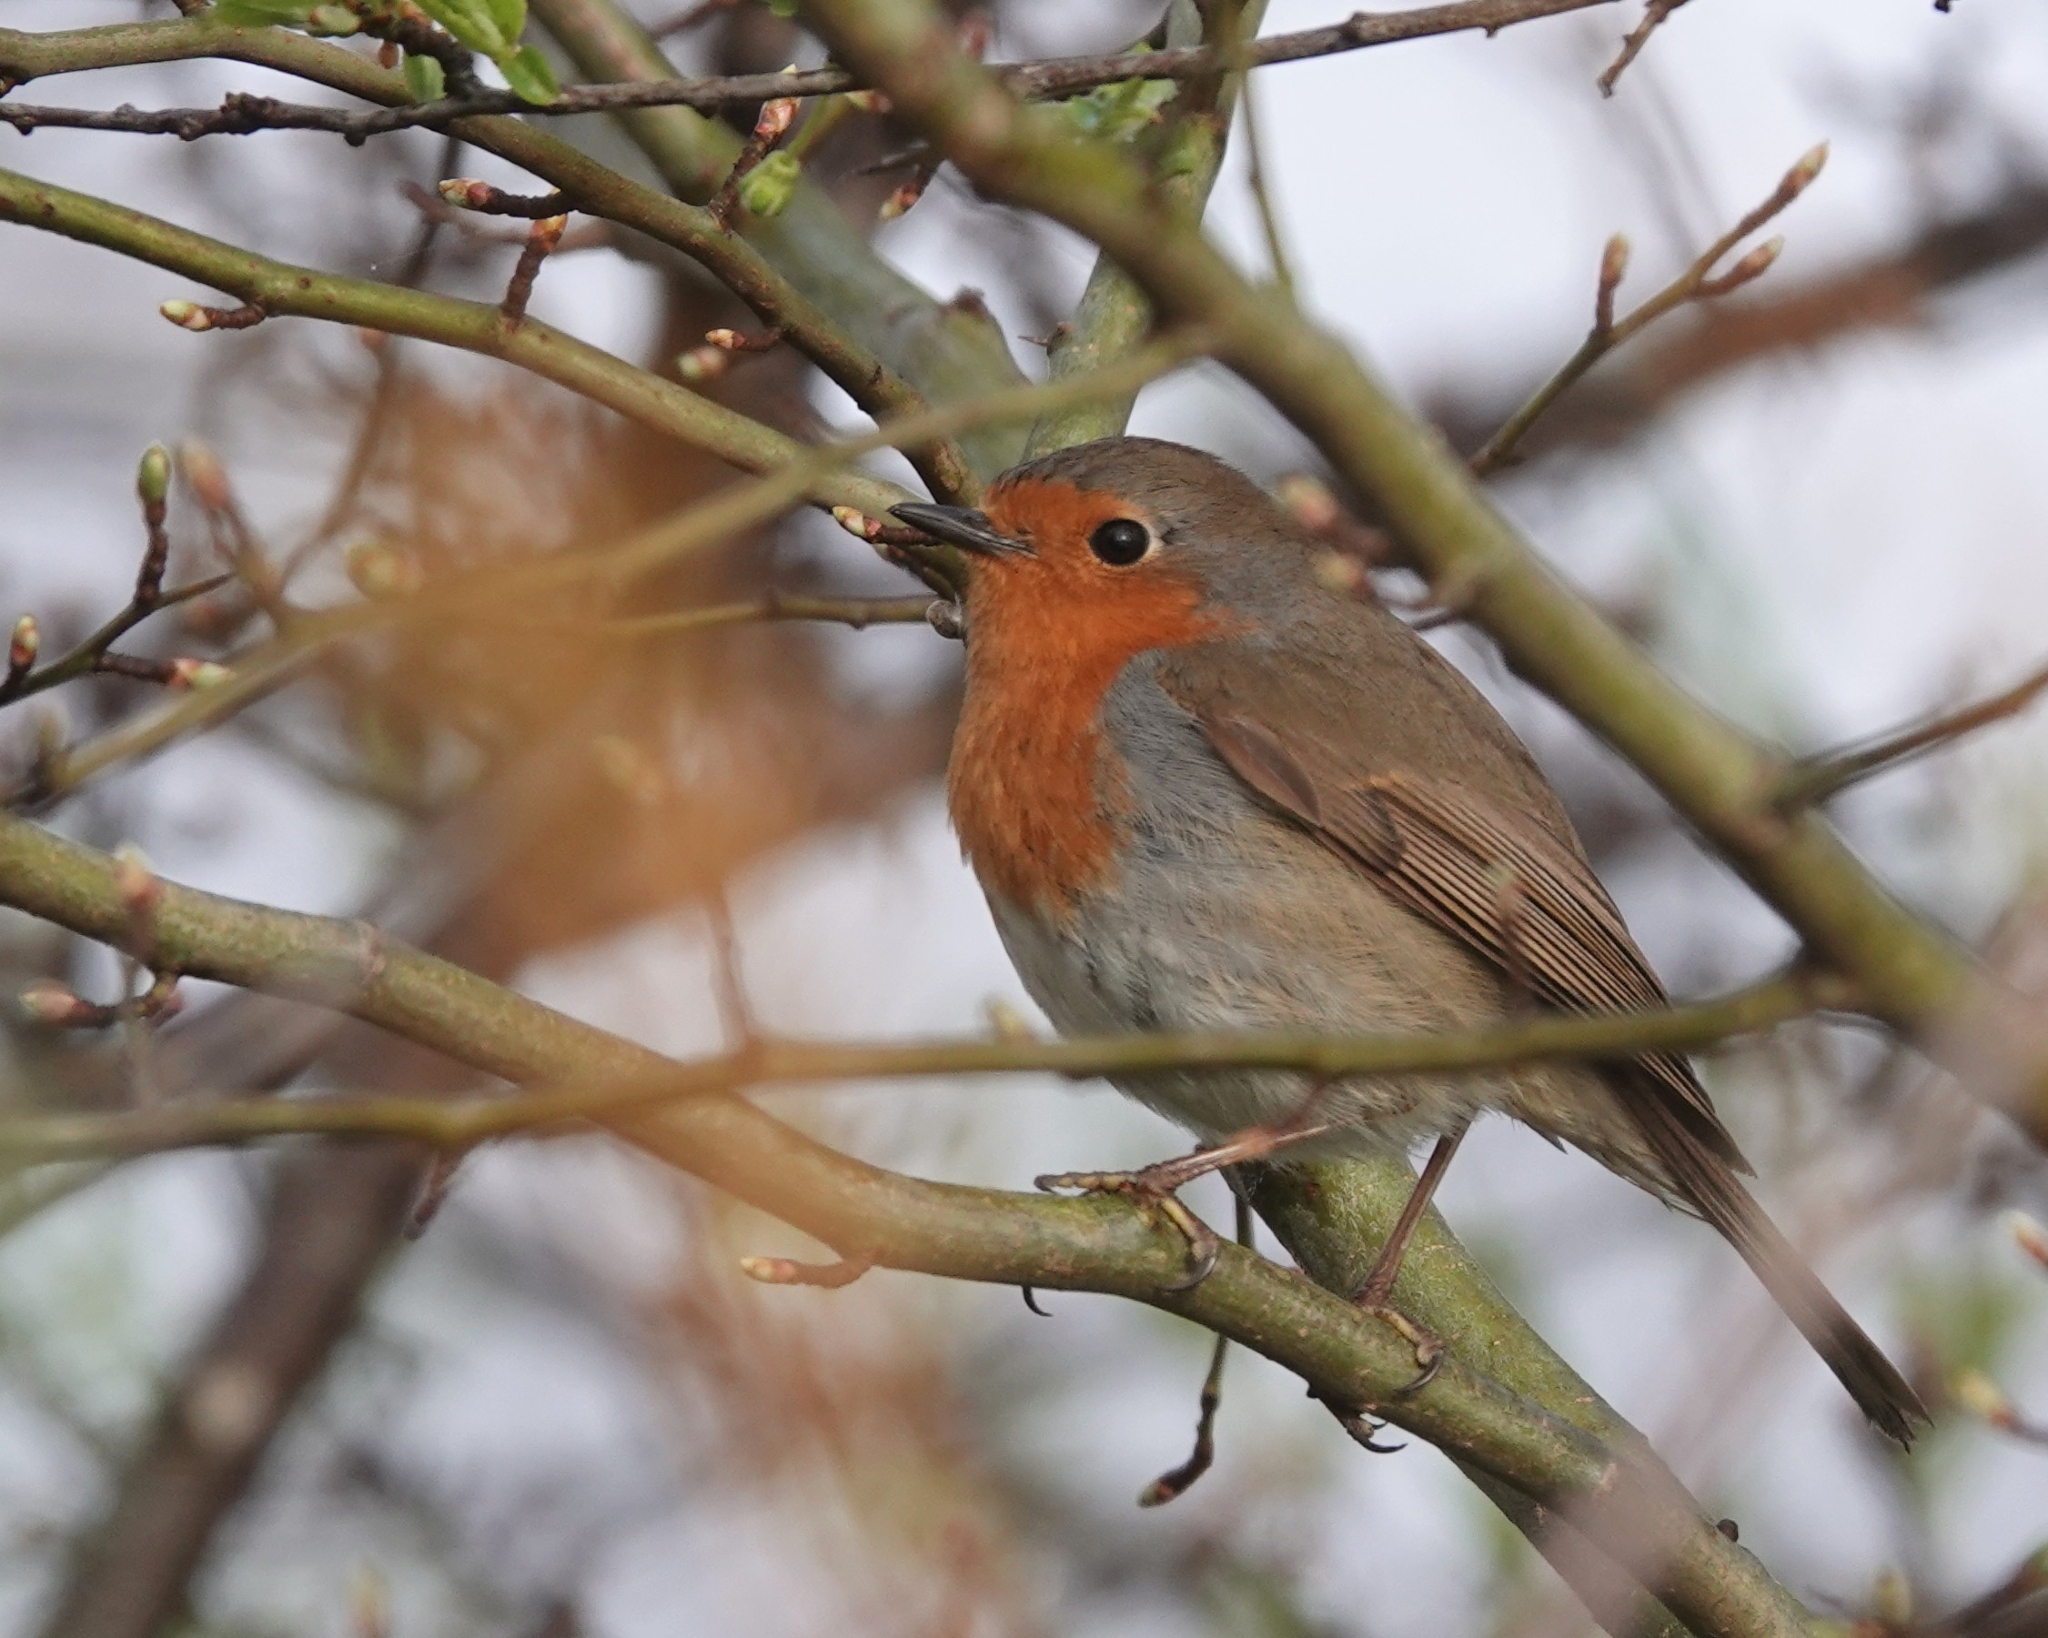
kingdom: Animalia
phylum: Chordata
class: Aves
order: Passeriformes
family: Muscicapidae
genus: Erithacus
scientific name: Erithacus rubecula
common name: European robin
